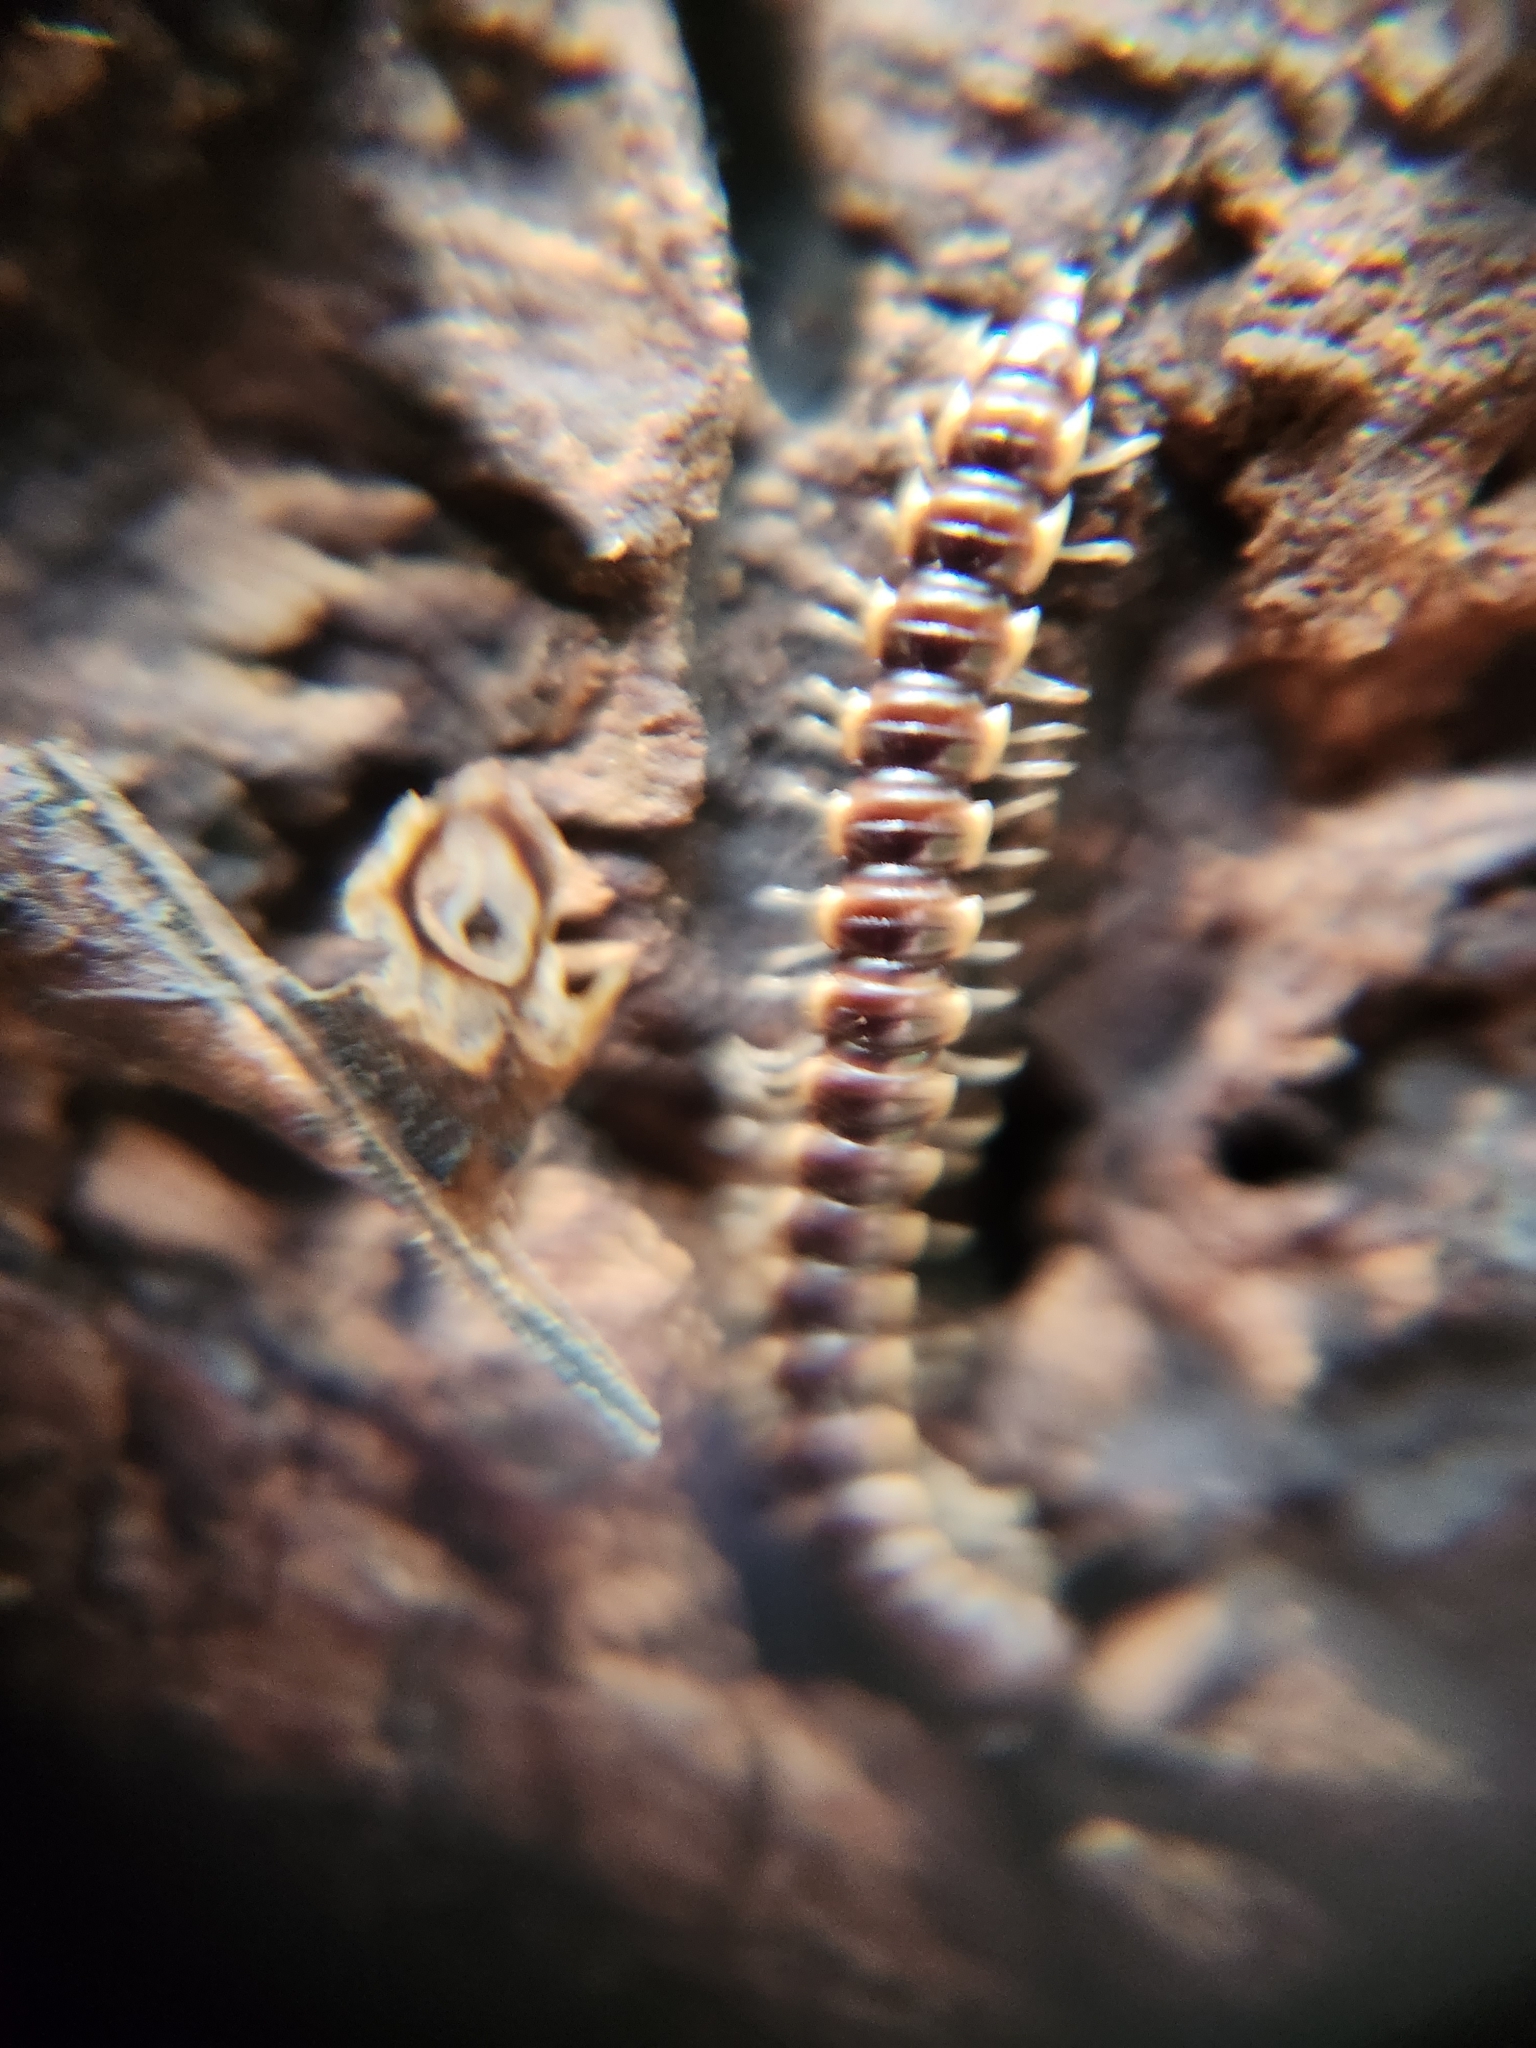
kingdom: Animalia
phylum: Arthropoda
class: Diplopoda
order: Polydesmida
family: Paradoxosomatidae
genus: Oxidus
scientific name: Oxidus gracilis
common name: Greenhouse millipede
